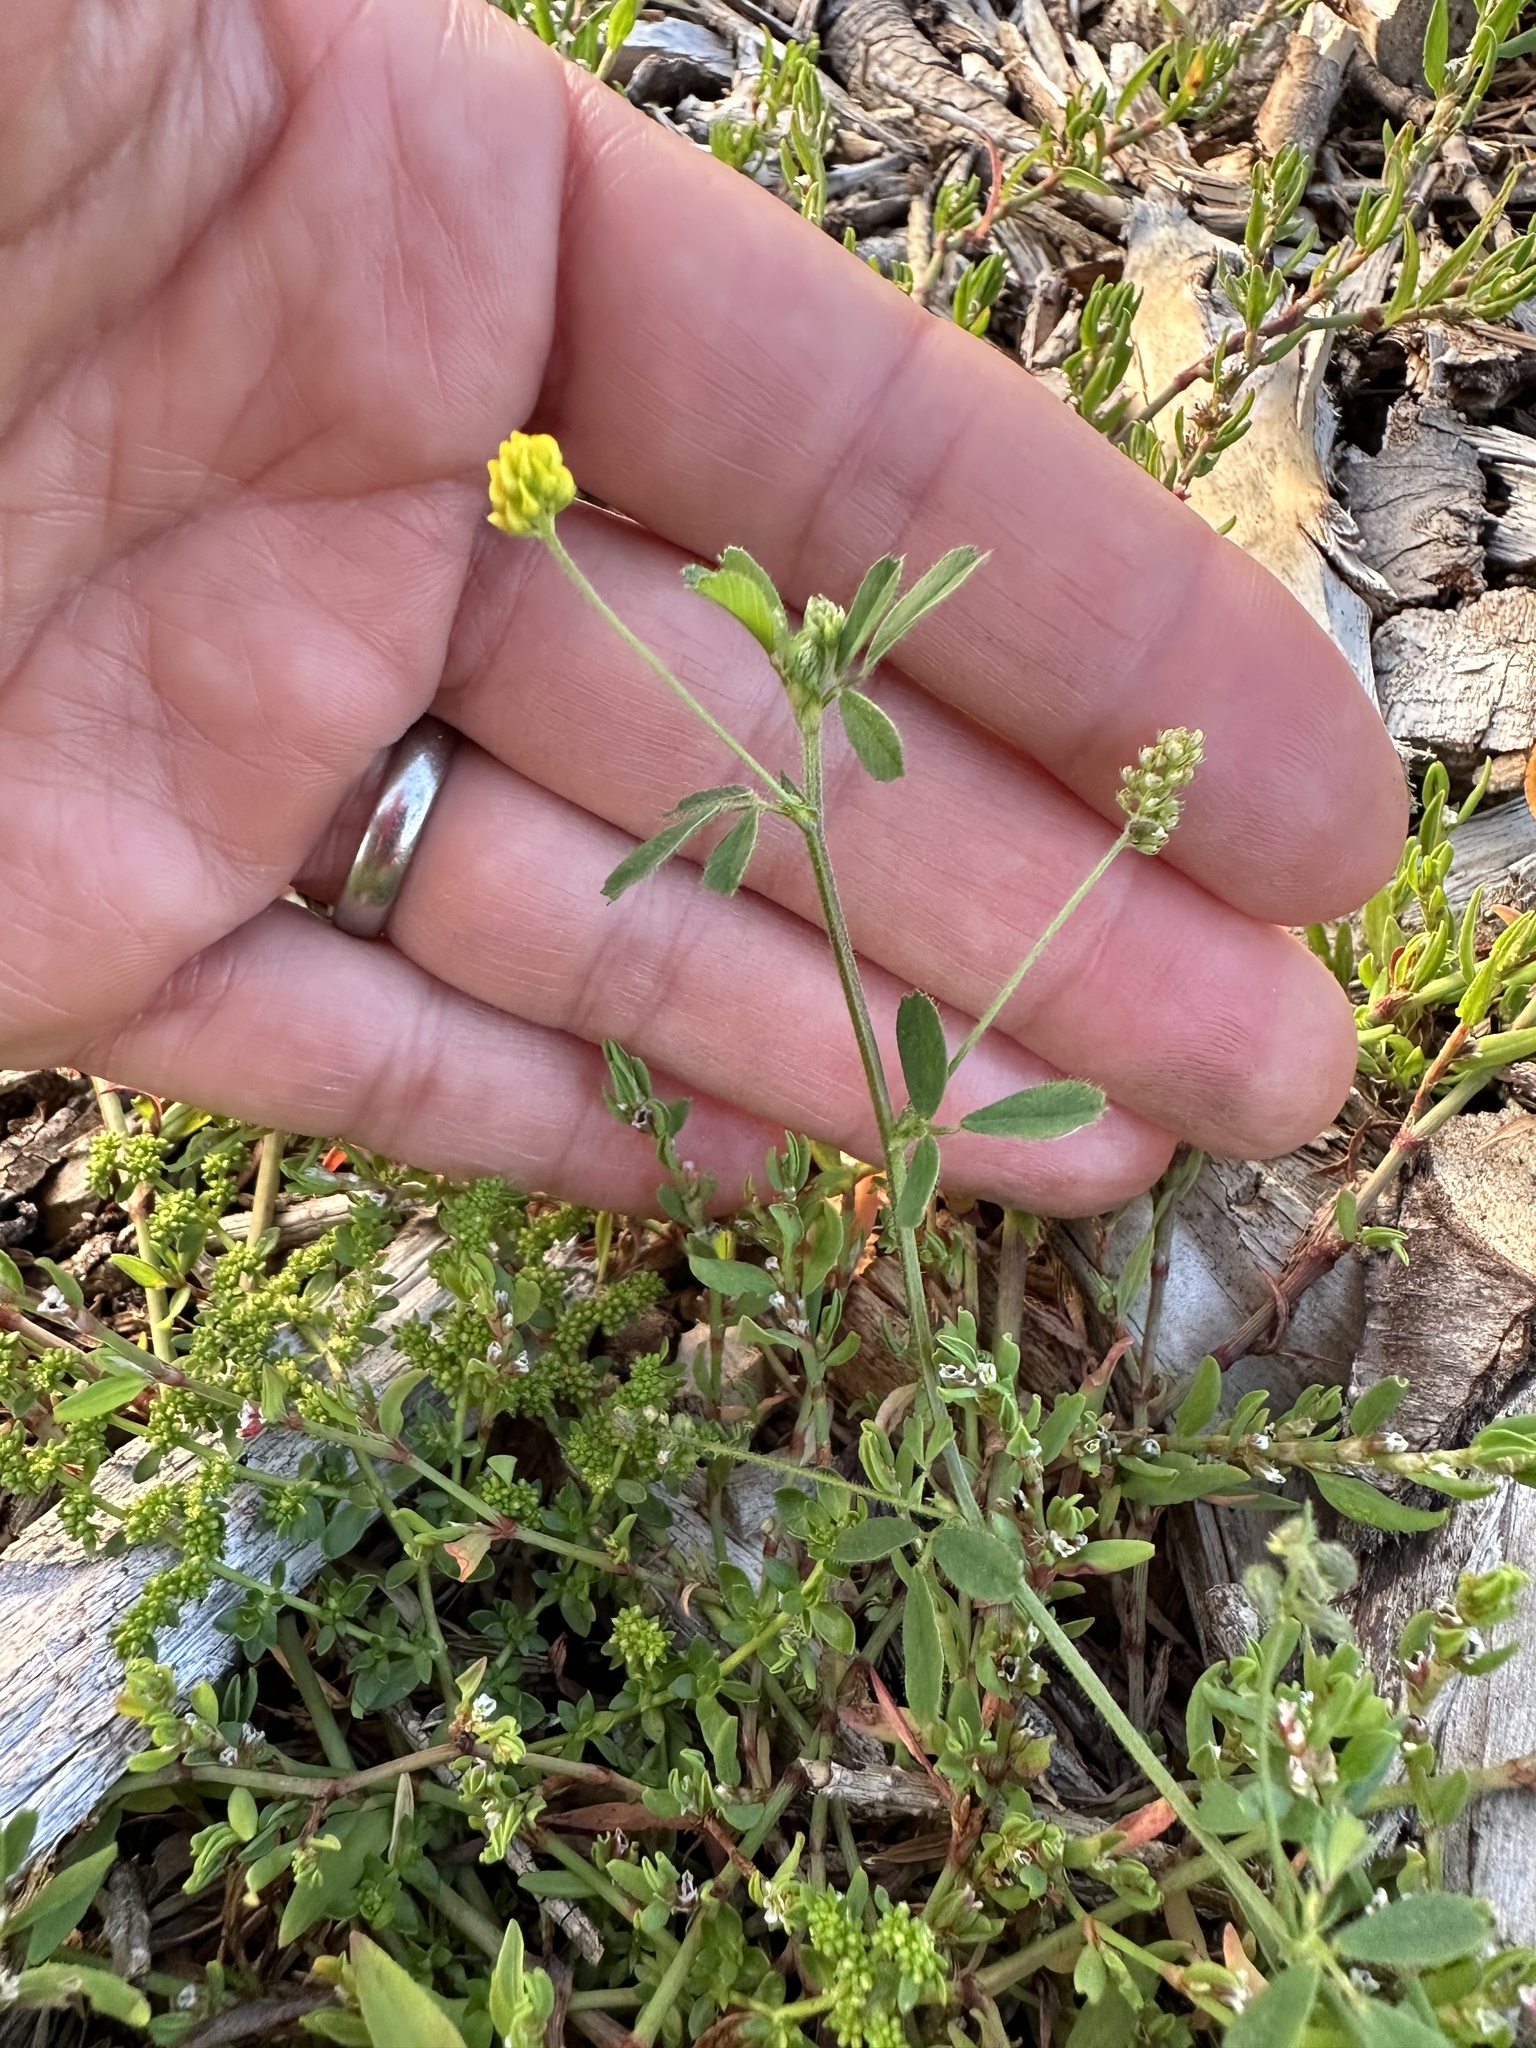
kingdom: Plantae
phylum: Tracheophyta
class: Magnoliopsida
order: Fabales
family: Fabaceae
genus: Medicago
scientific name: Medicago lupulina
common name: Black medick
